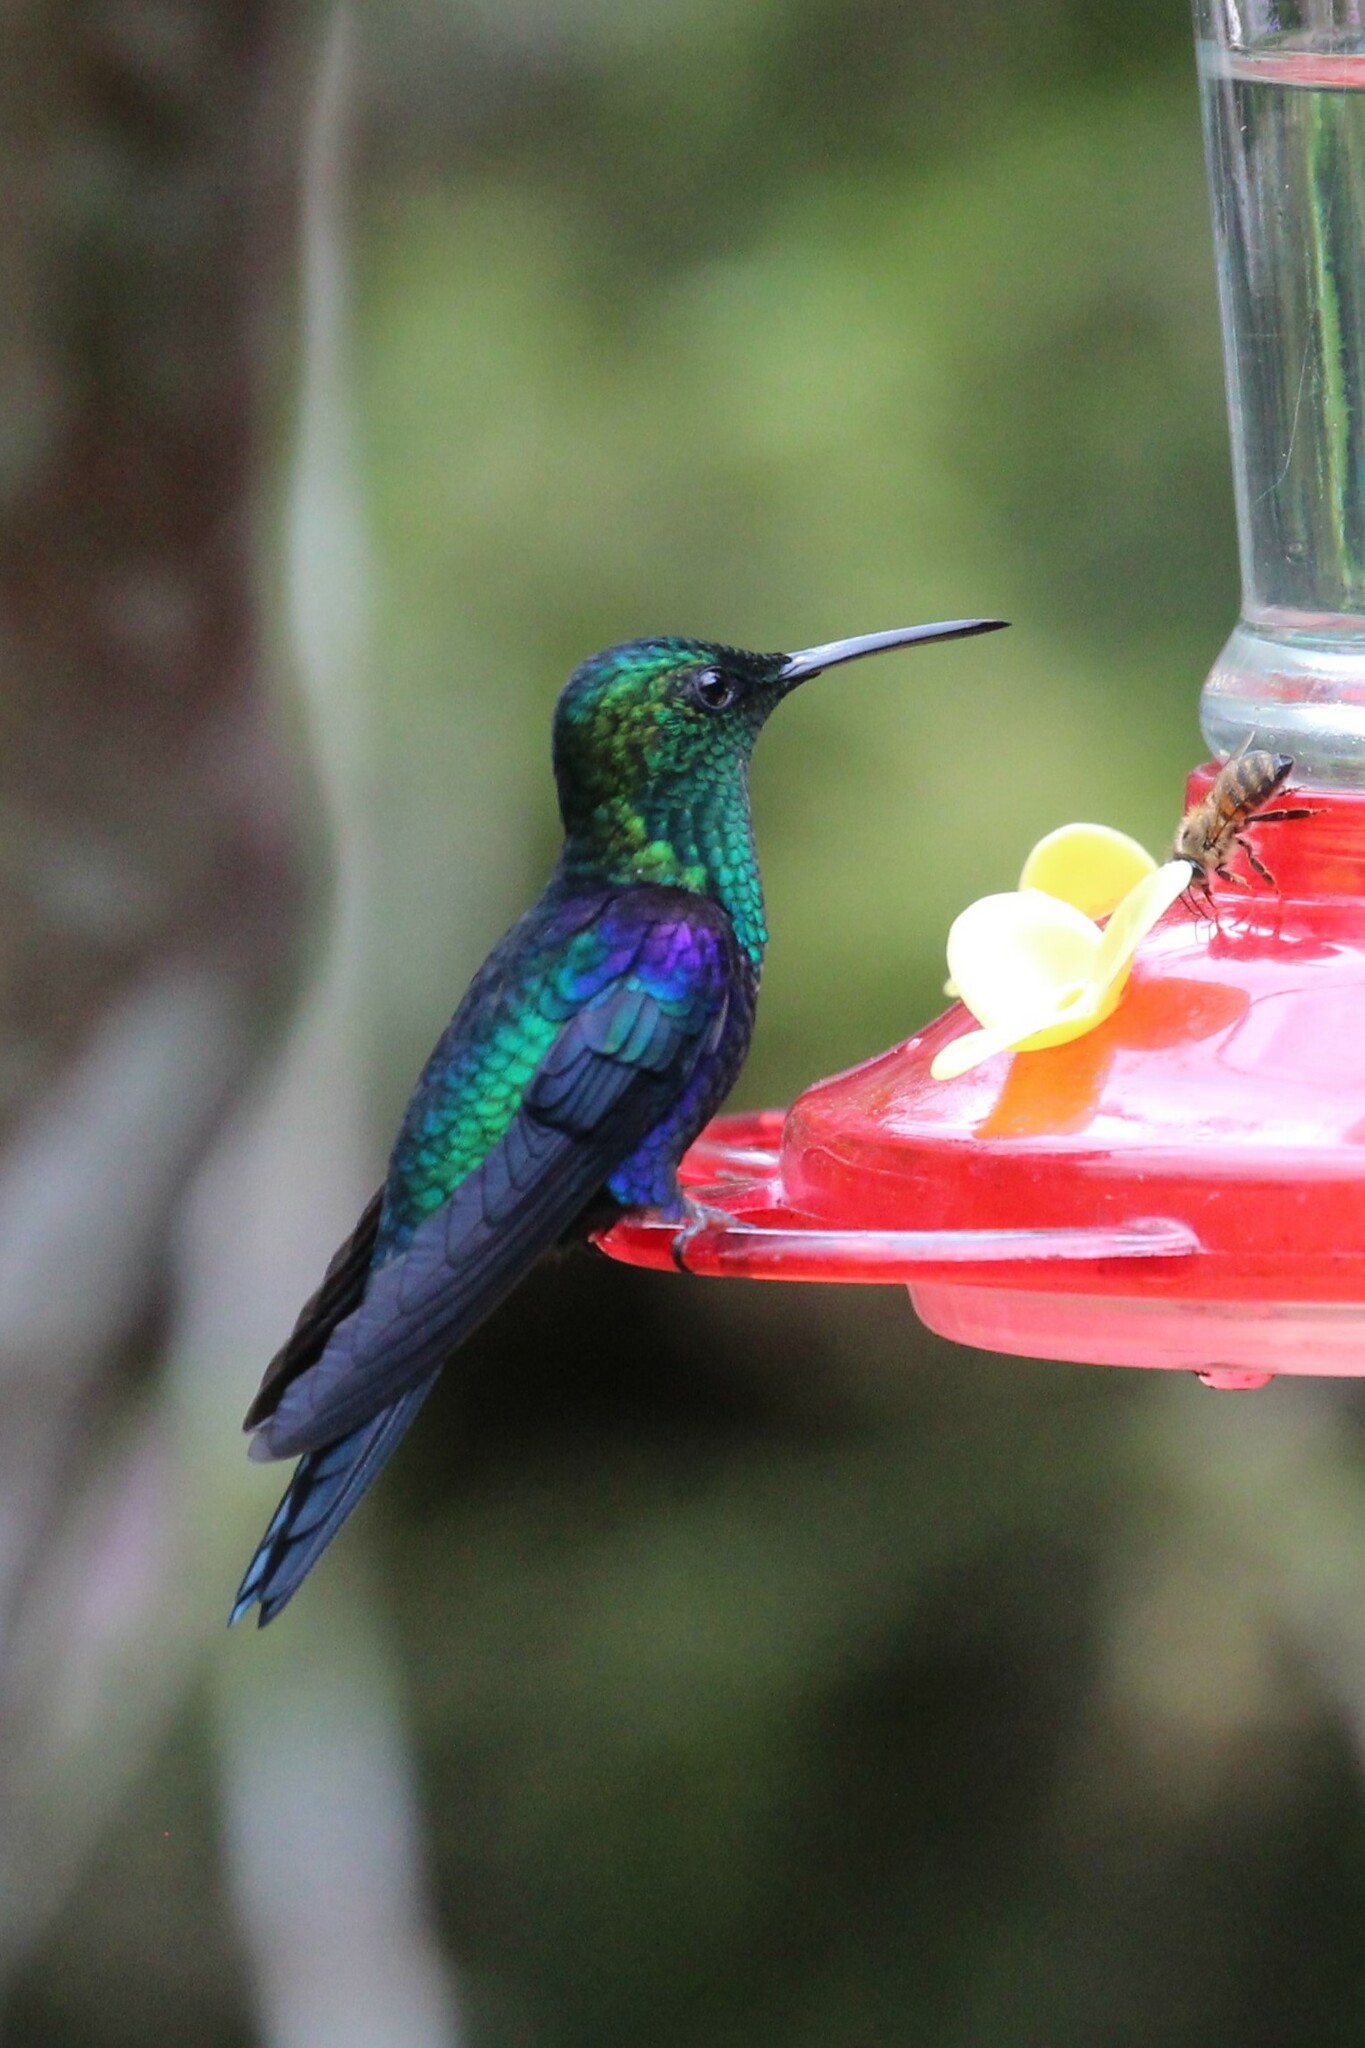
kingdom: Animalia
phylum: Chordata
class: Aves
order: Apodiformes
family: Trochilidae
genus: Thalurania
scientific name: Thalurania colombica
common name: Crowned woodnymph
